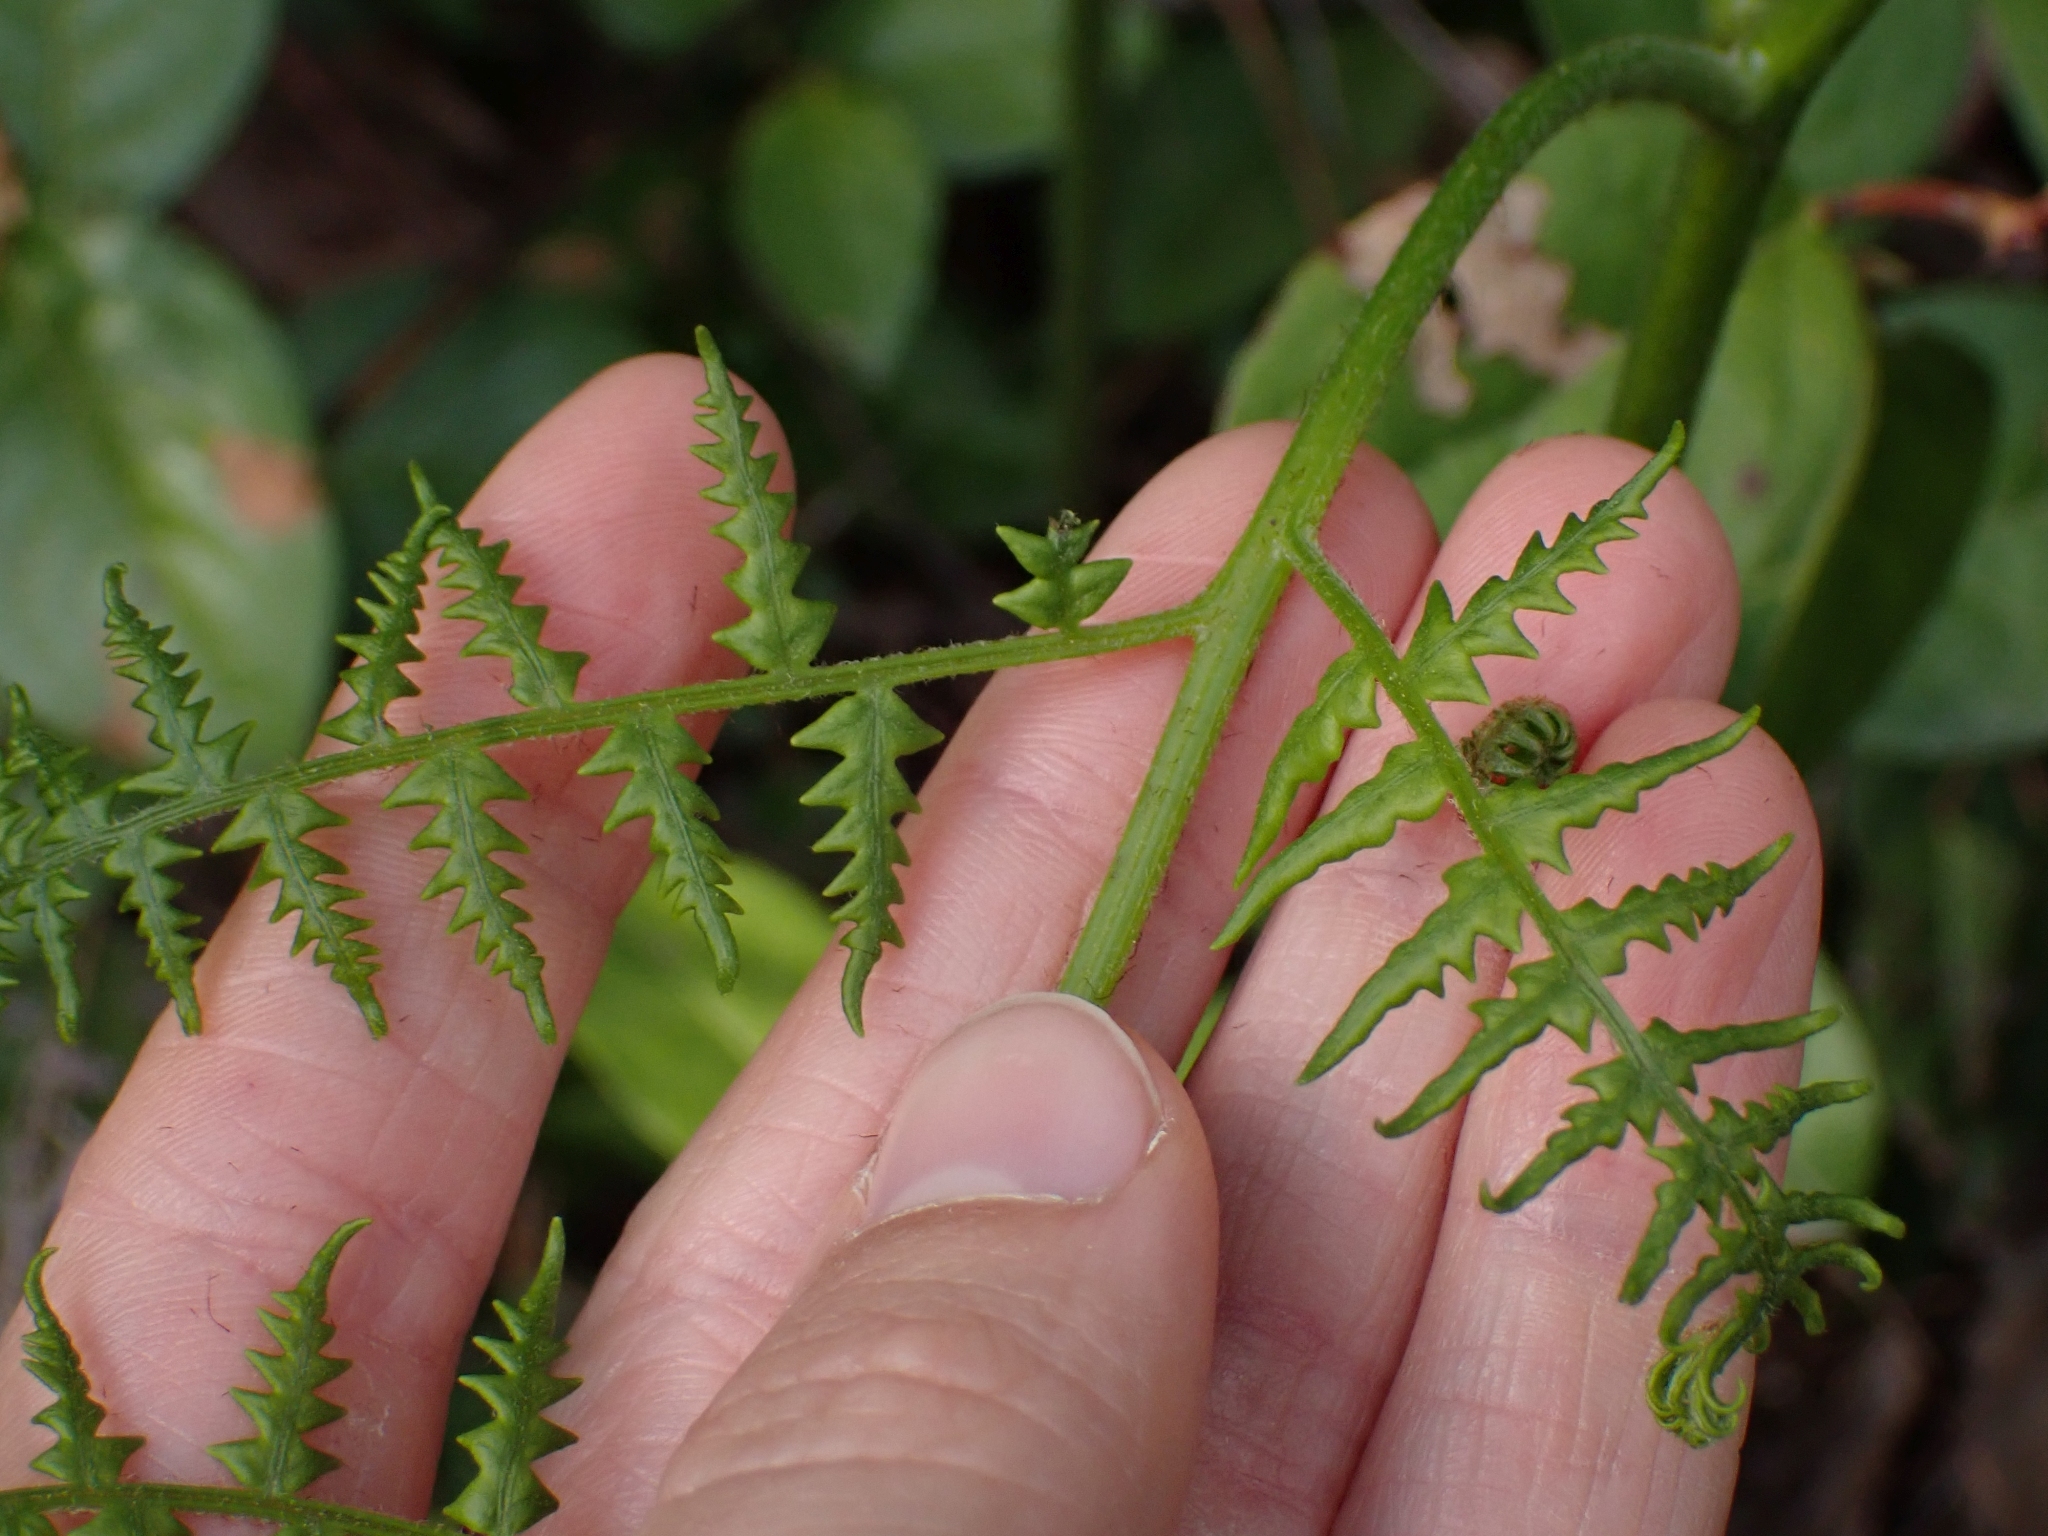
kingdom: Plantae
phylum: Tracheophyta
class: Polypodiopsida
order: Polypodiales
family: Dennstaedtiaceae
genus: Pteridium
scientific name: Pteridium aquilinum
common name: Bracken
